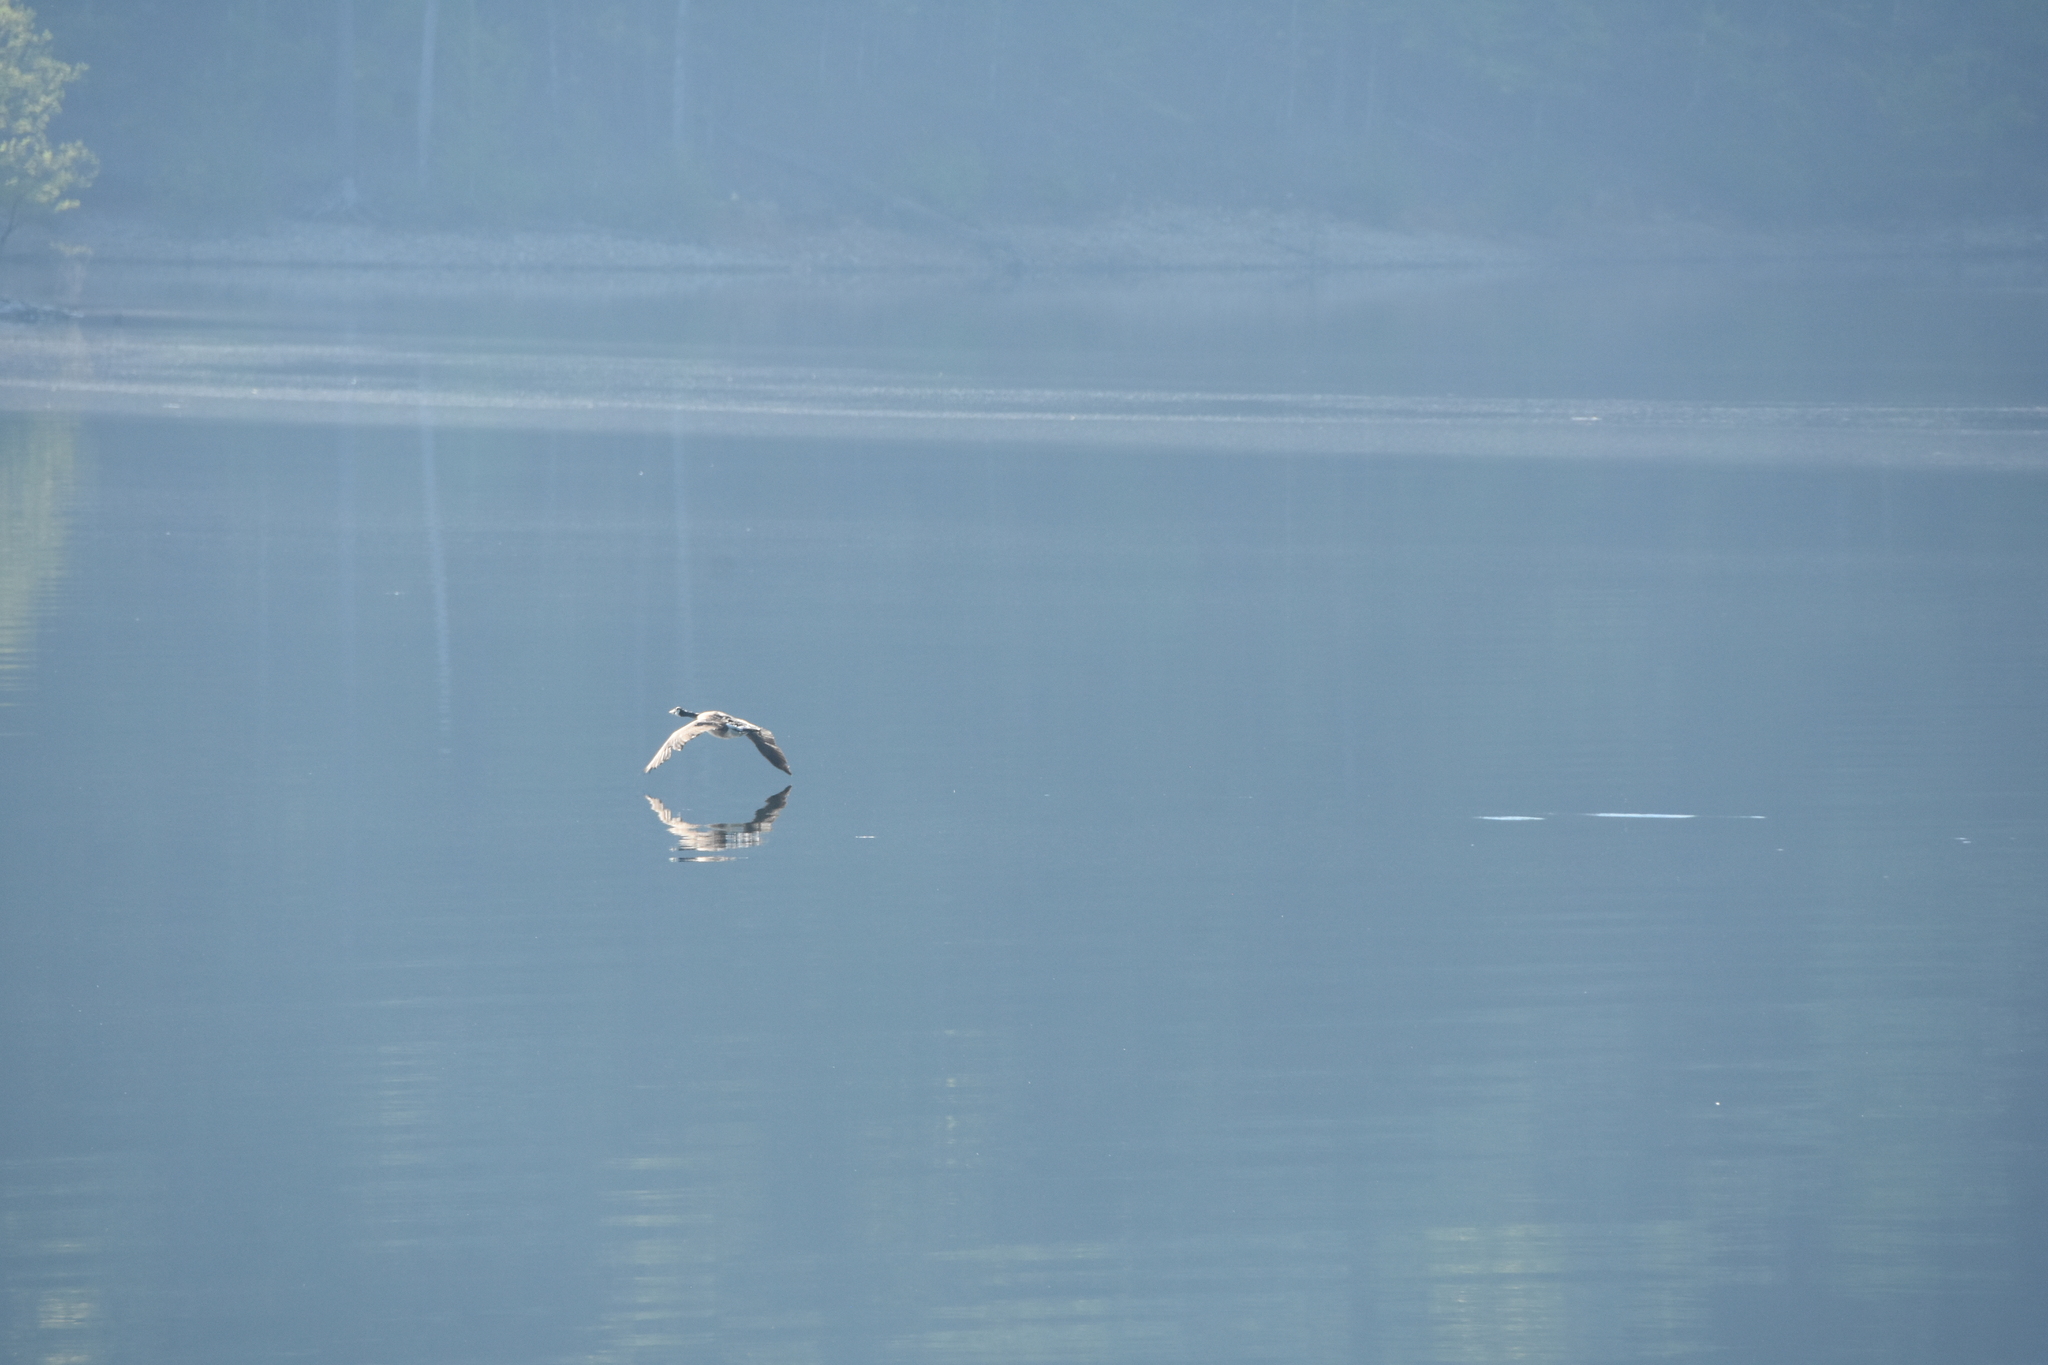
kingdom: Animalia
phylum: Chordata
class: Aves
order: Anseriformes
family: Anatidae
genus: Branta
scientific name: Branta canadensis
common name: Canada goose
